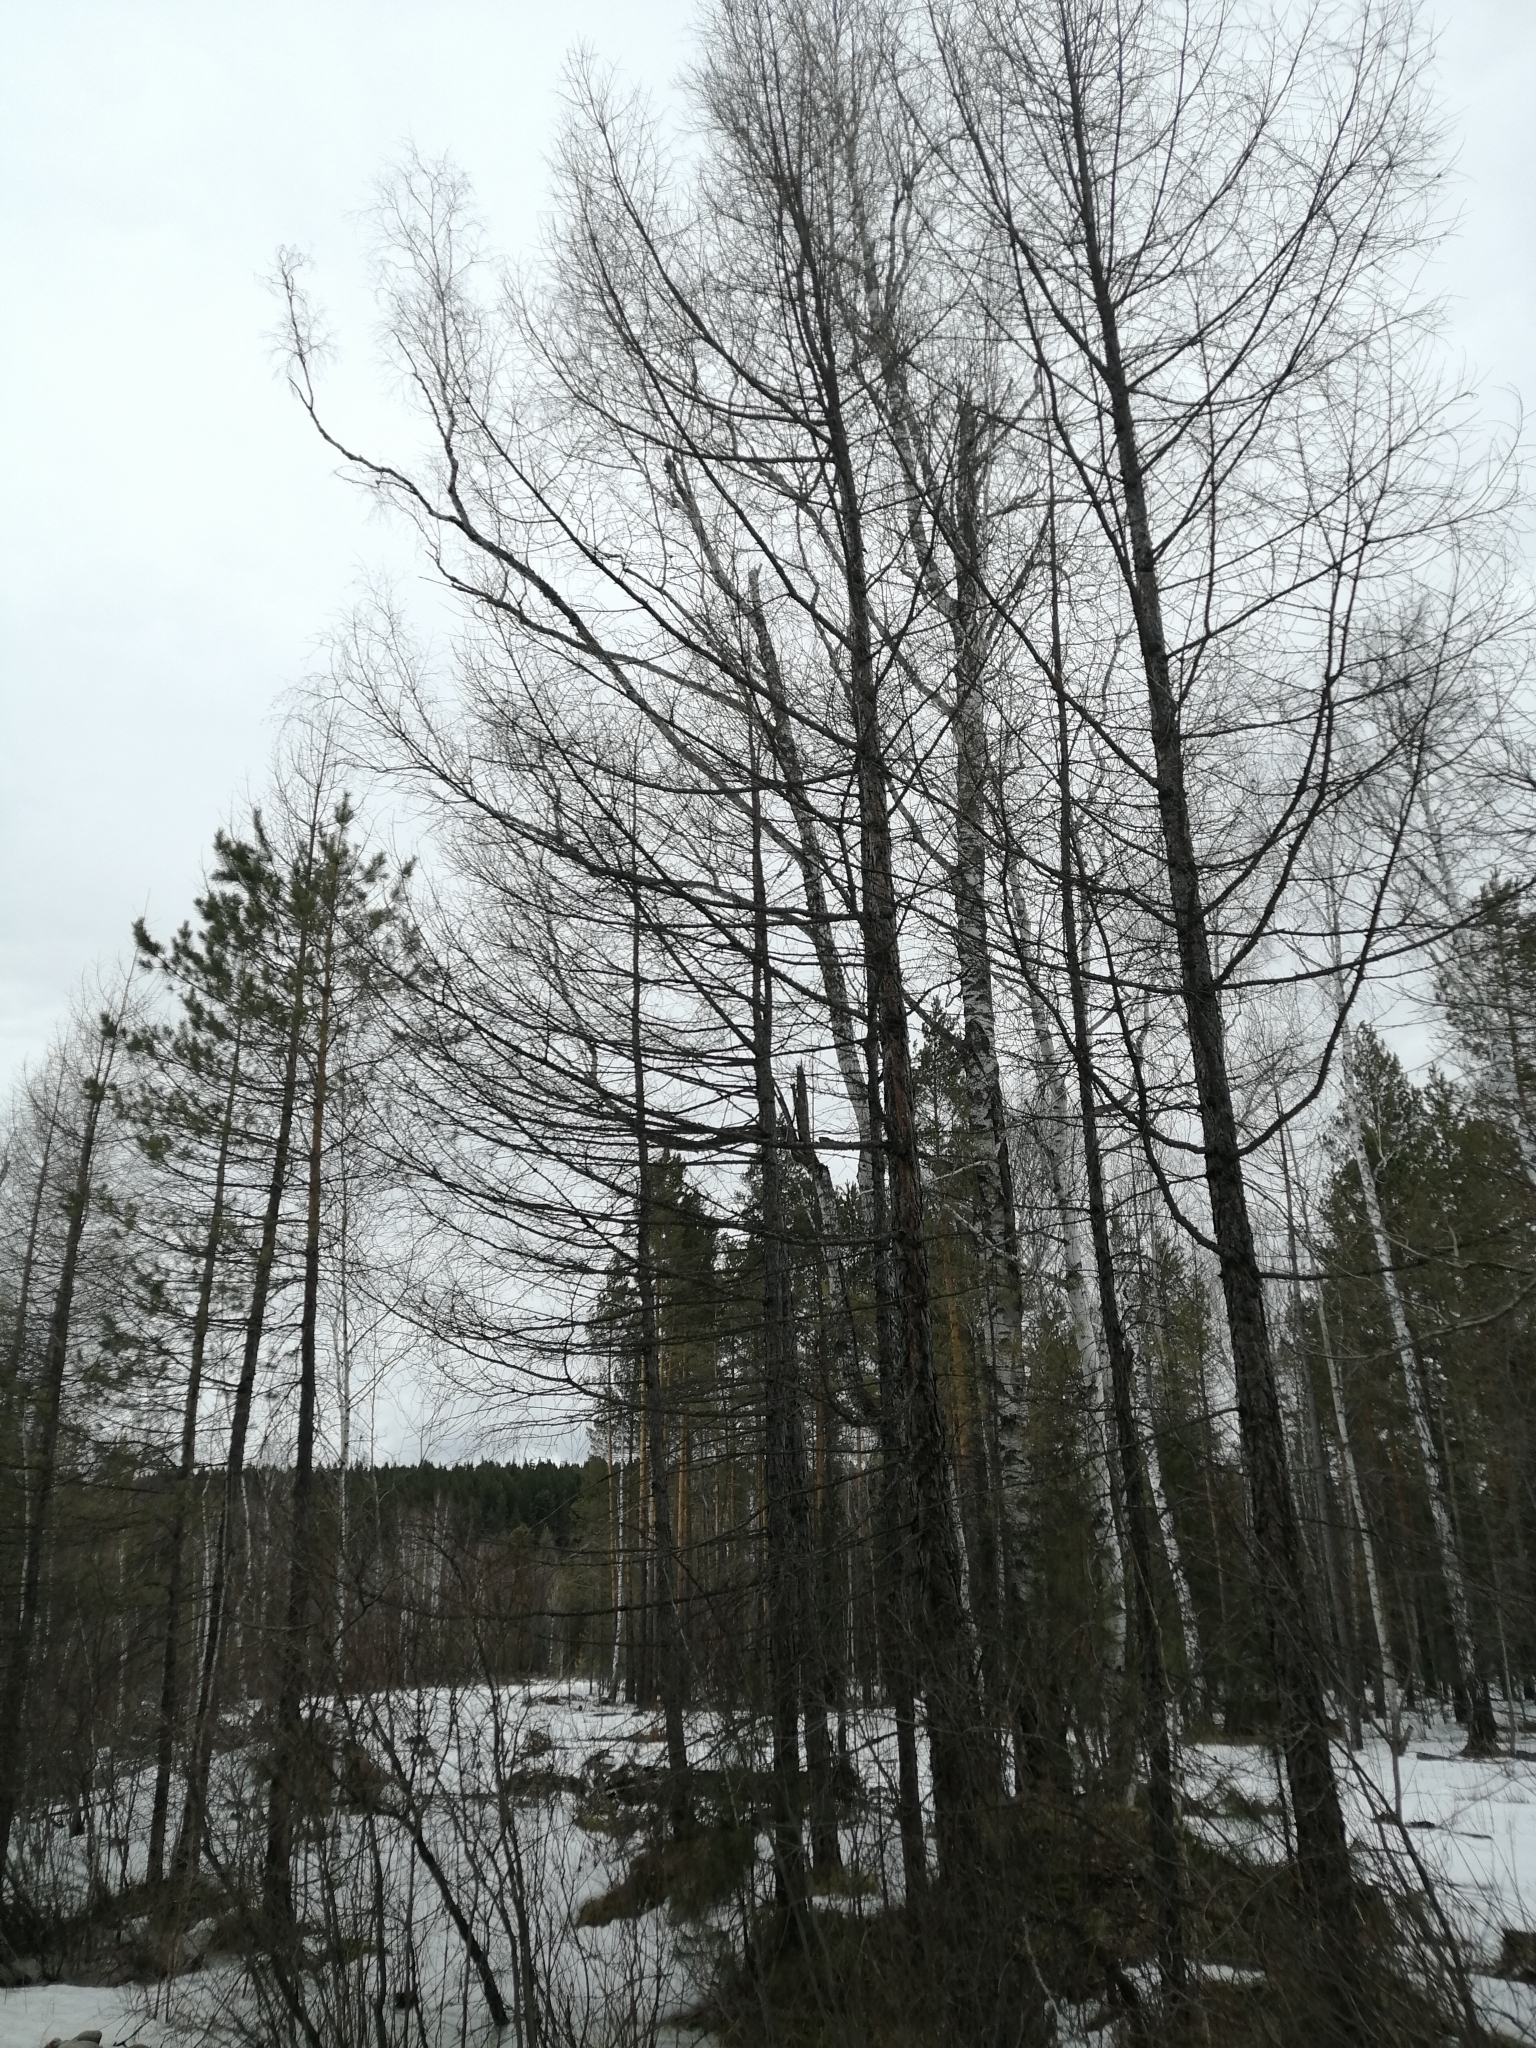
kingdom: Plantae
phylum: Tracheophyta
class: Pinopsida
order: Pinales
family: Pinaceae
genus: Larix
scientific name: Larix sibirica
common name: Siberian larch
